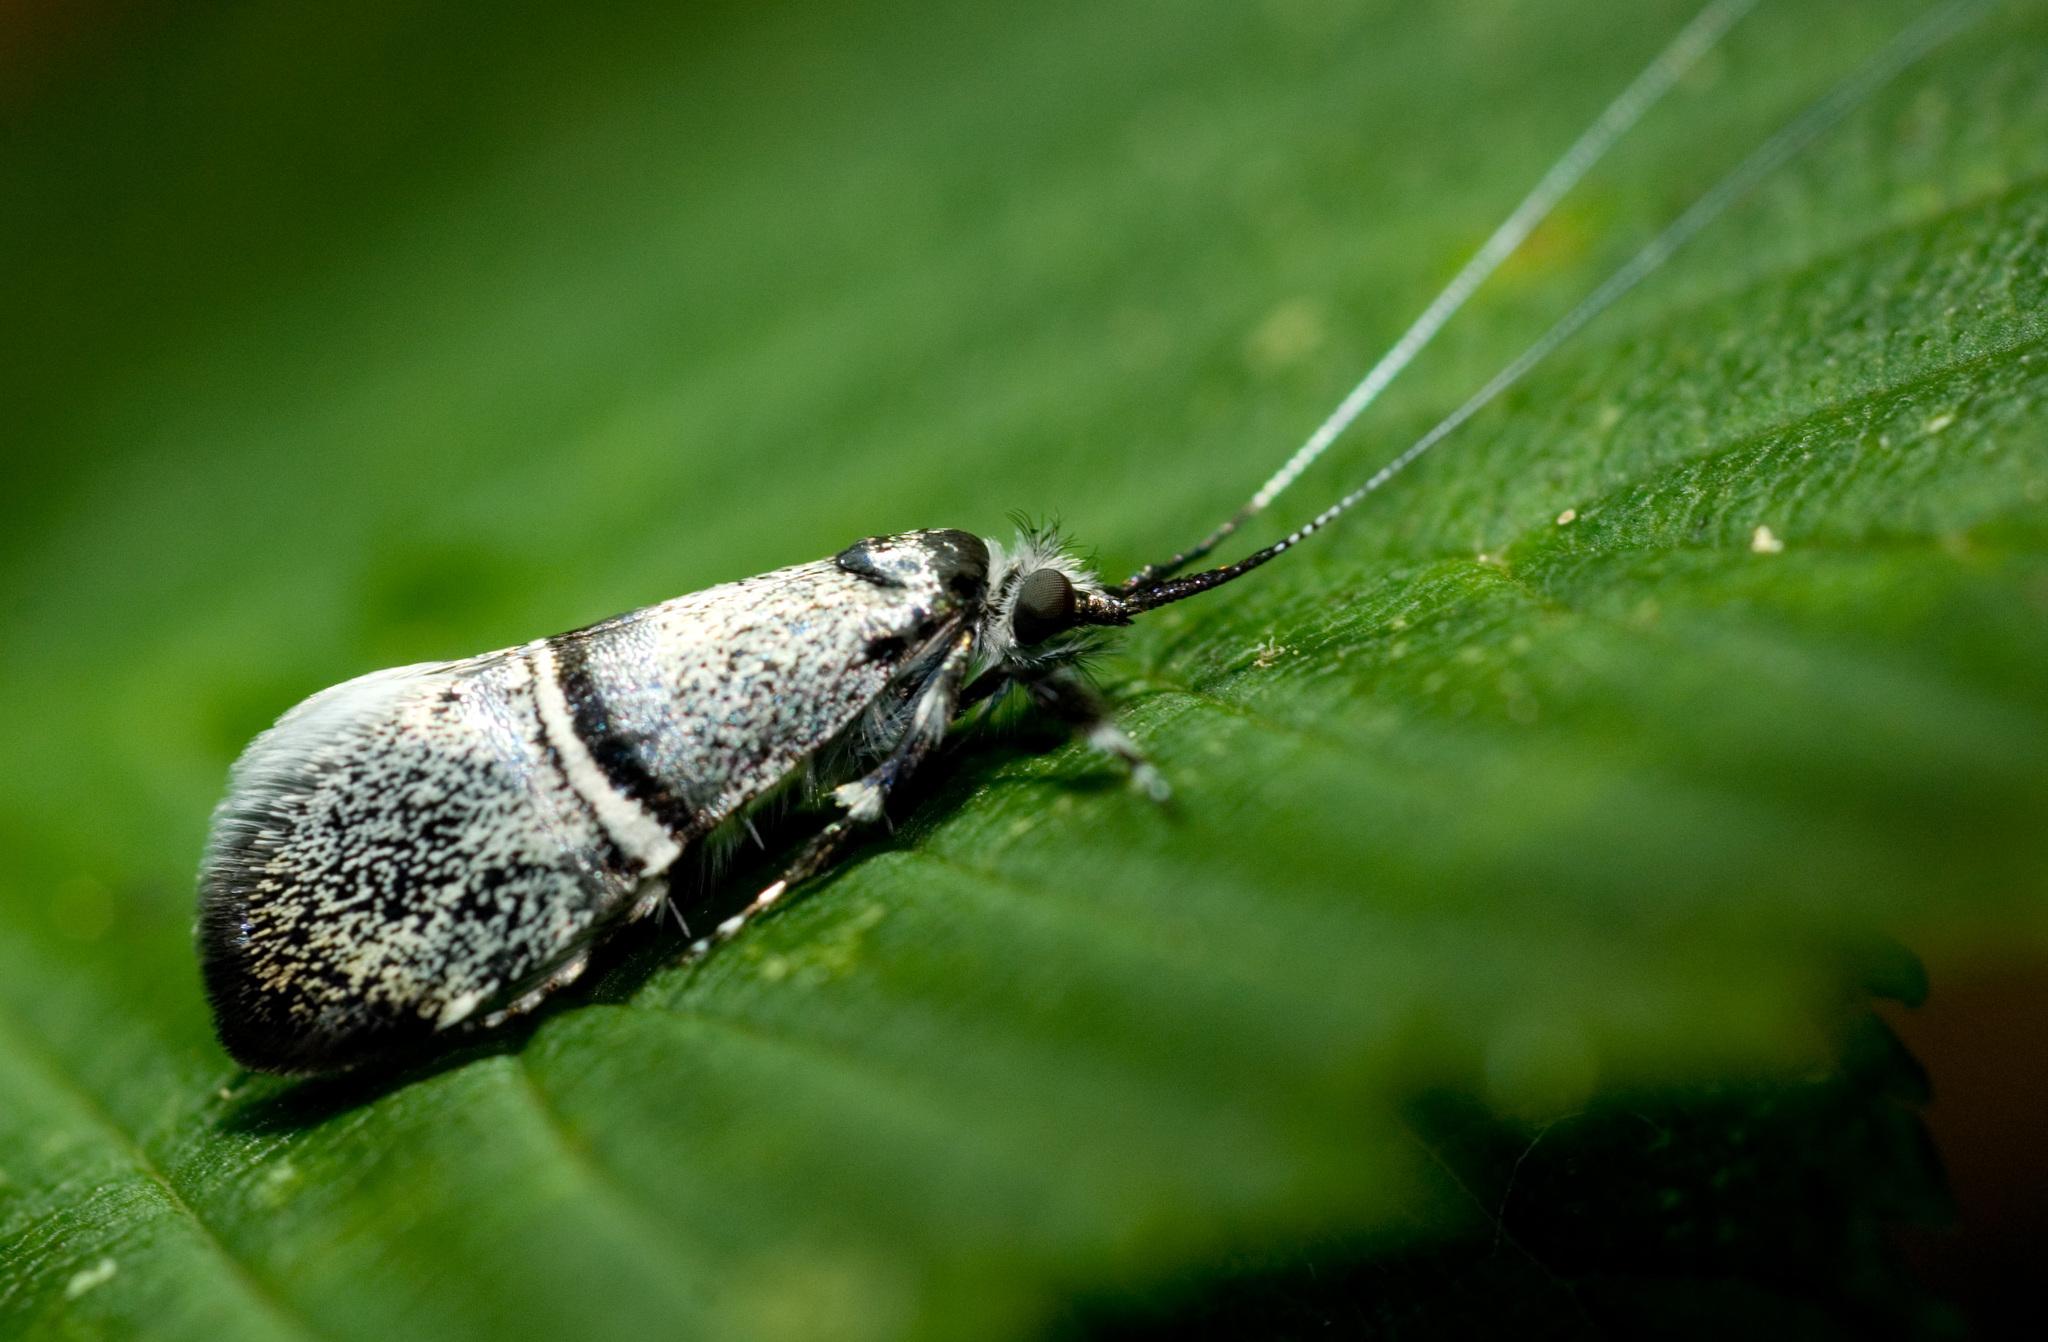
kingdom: Animalia
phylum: Arthropoda
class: Insecta
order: Lepidoptera
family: Adelidae
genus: Nemophora
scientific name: Nemophora askoldella
